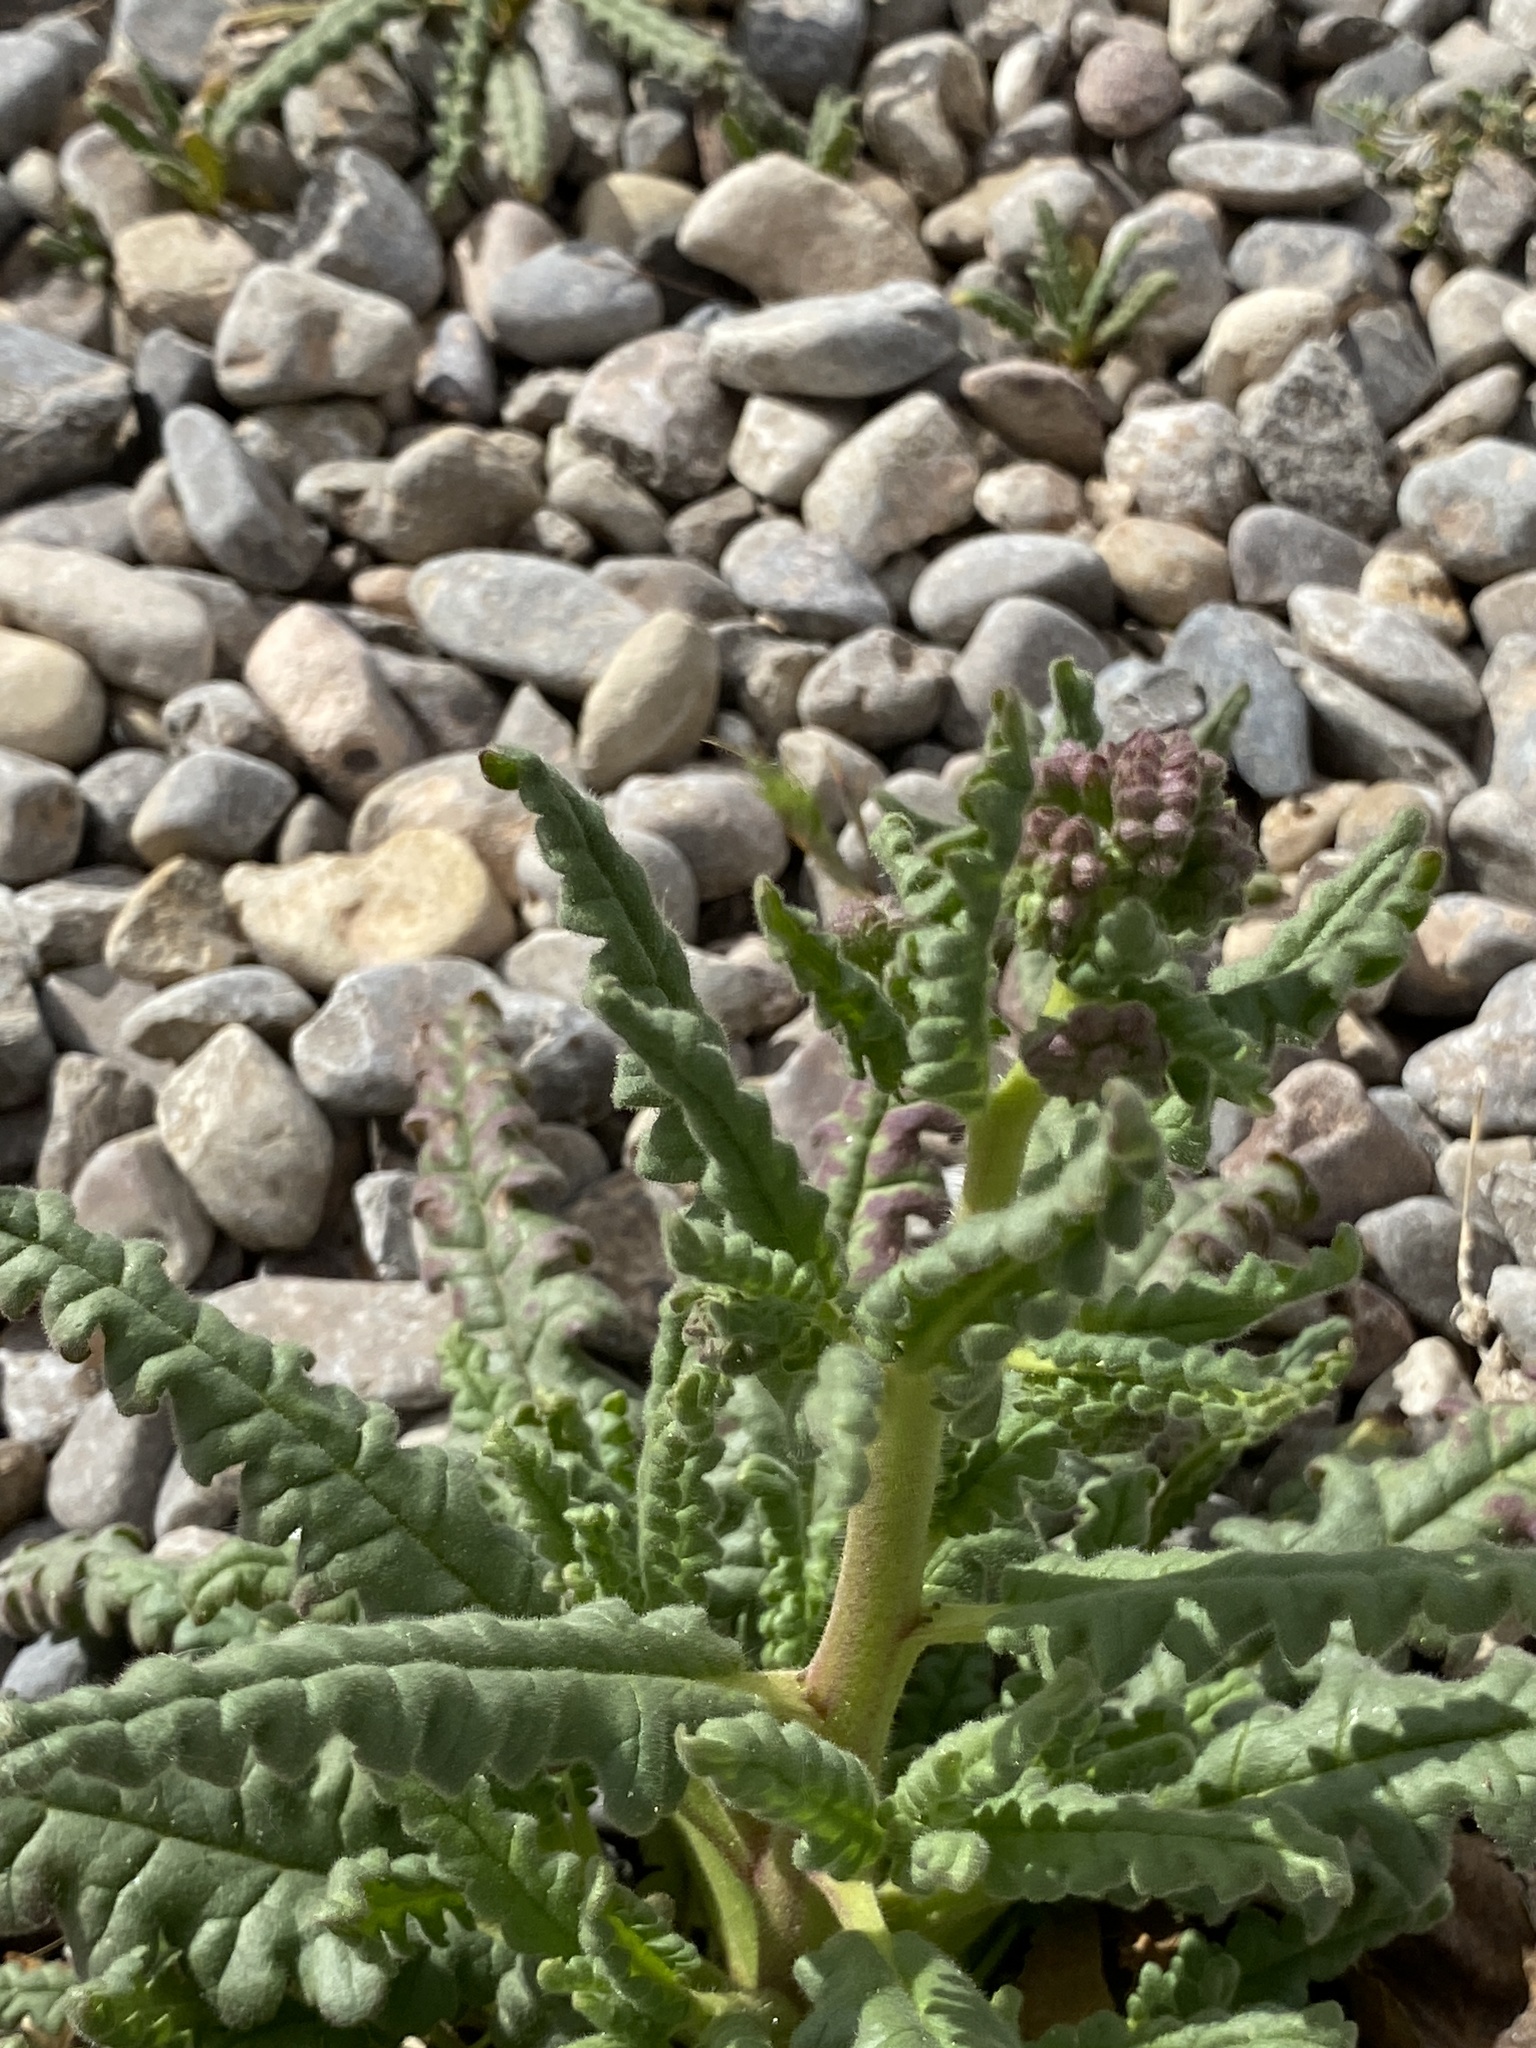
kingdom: Plantae
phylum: Tracheophyta
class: Magnoliopsida
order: Boraginales
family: Hydrophyllaceae
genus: Phacelia
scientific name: Phacelia integrifolia
